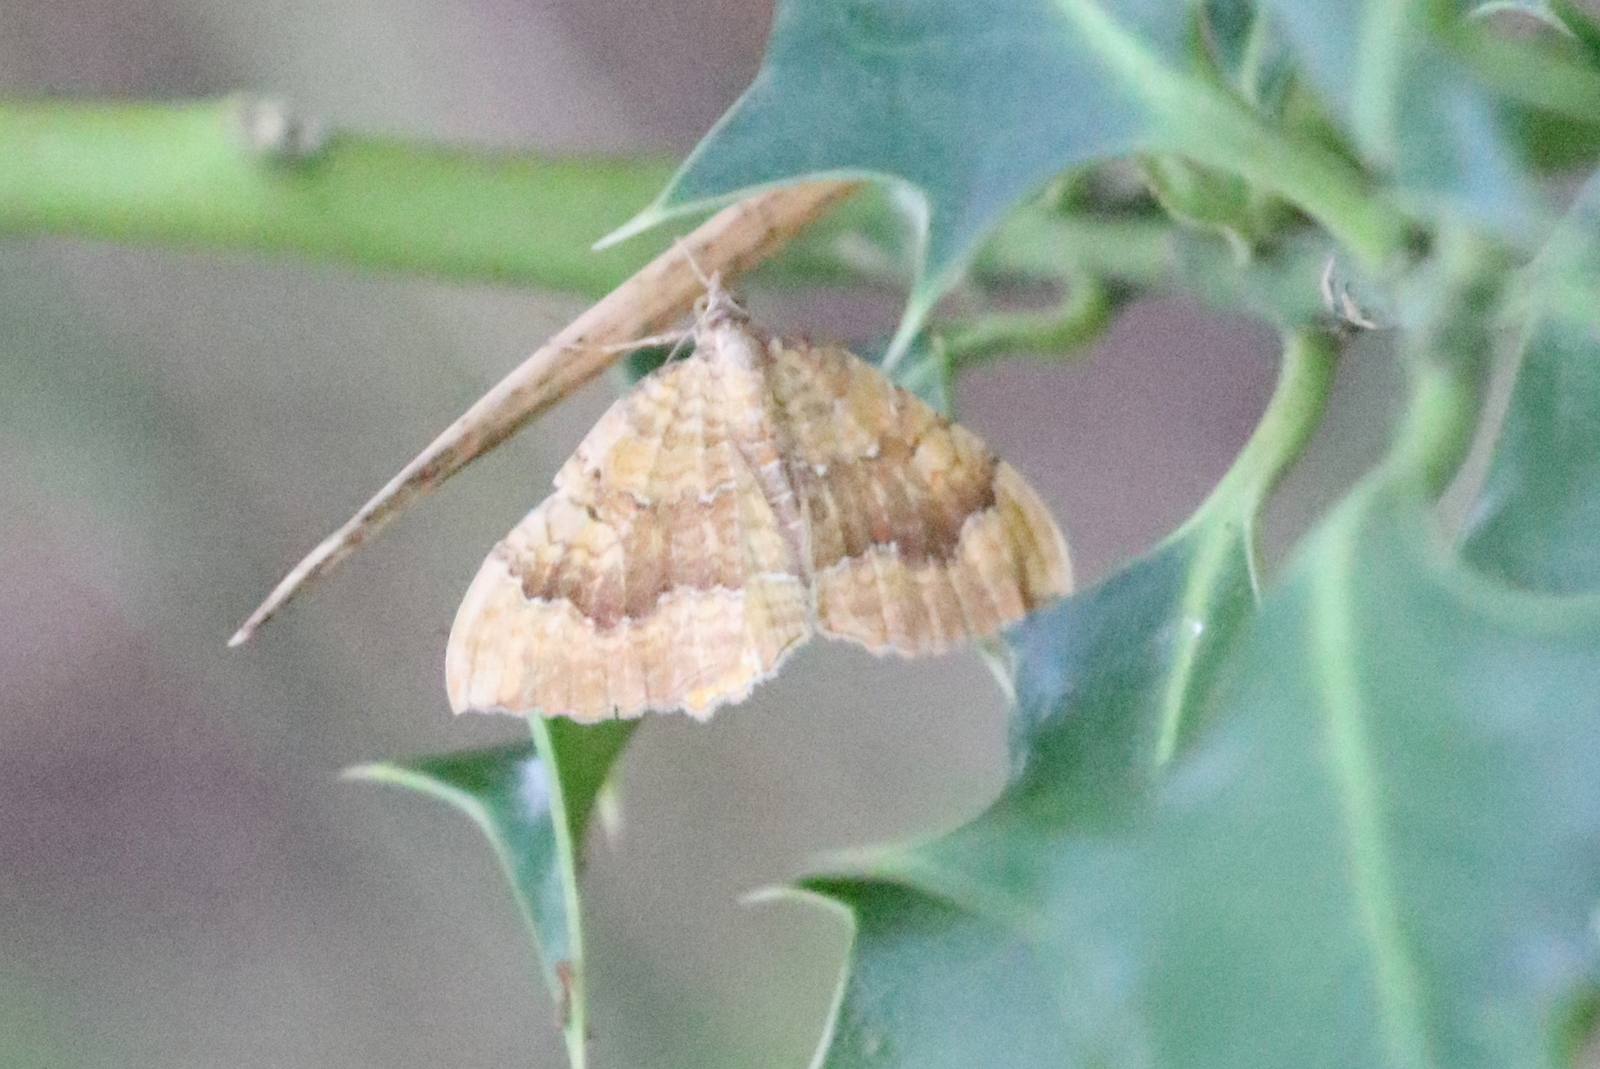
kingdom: Animalia
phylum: Arthropoda
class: Insecta
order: Lepidoptera
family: Geometridae
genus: Camptogramma
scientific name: Camptogramma bilineata
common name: Yellow shell
